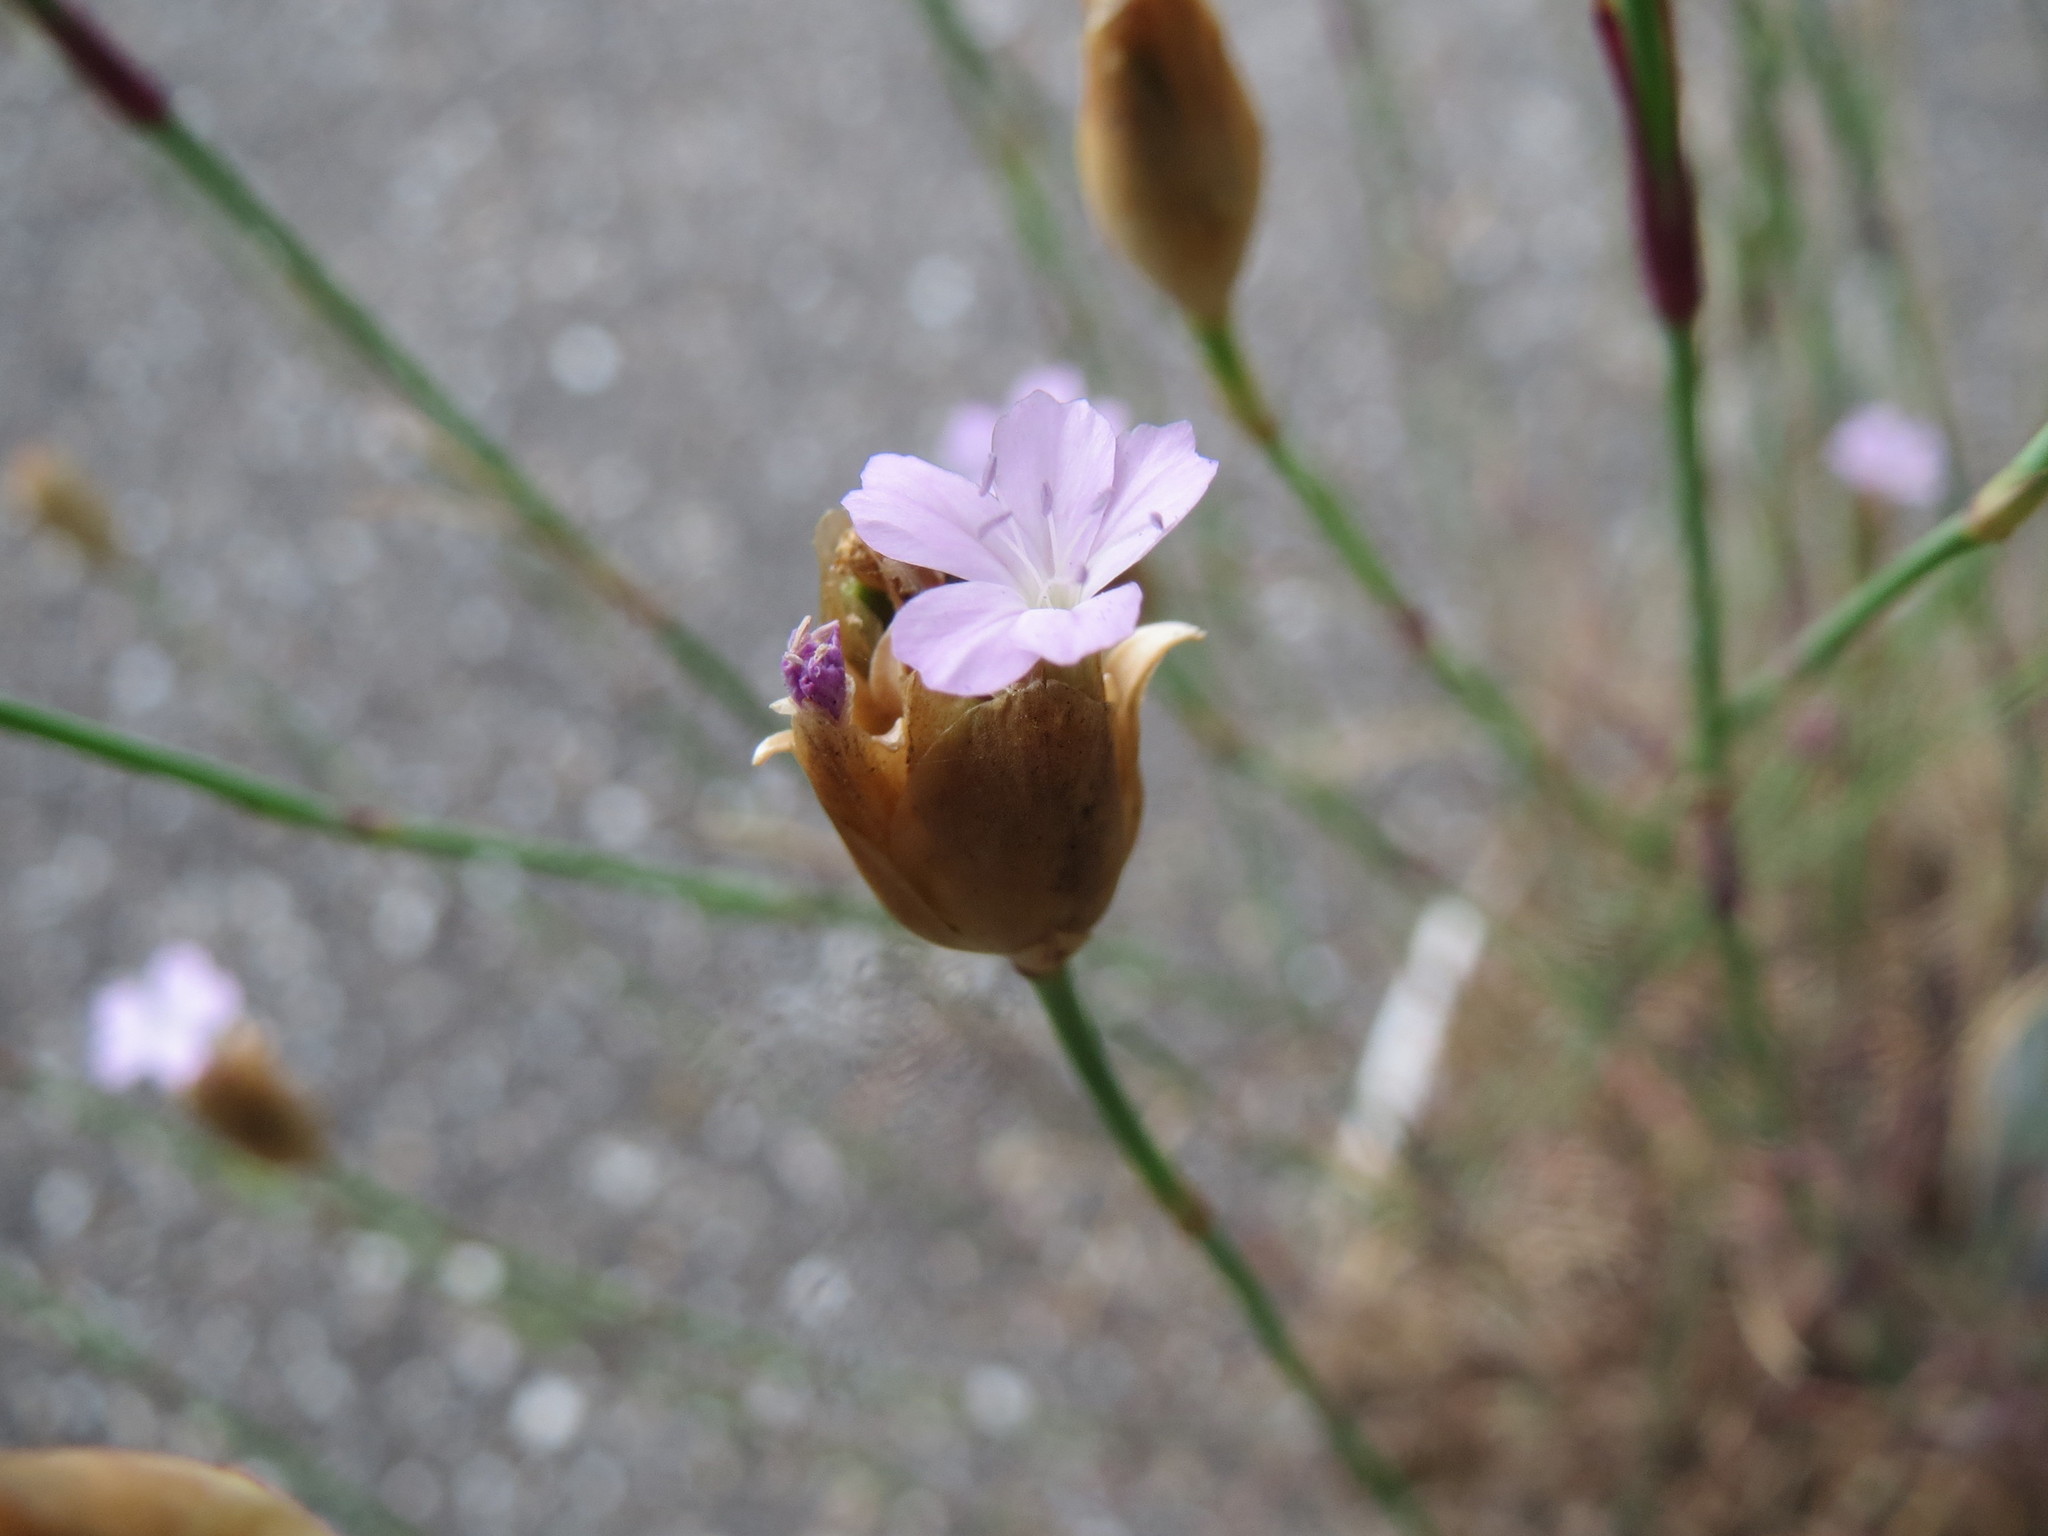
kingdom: Plantae
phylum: Tracheophyta
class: Magnoliopsida
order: Caryophyllales
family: Caryophyllaceae
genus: Petrorhagia
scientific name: Petrorhagia prolifera
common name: Proliferous pink
